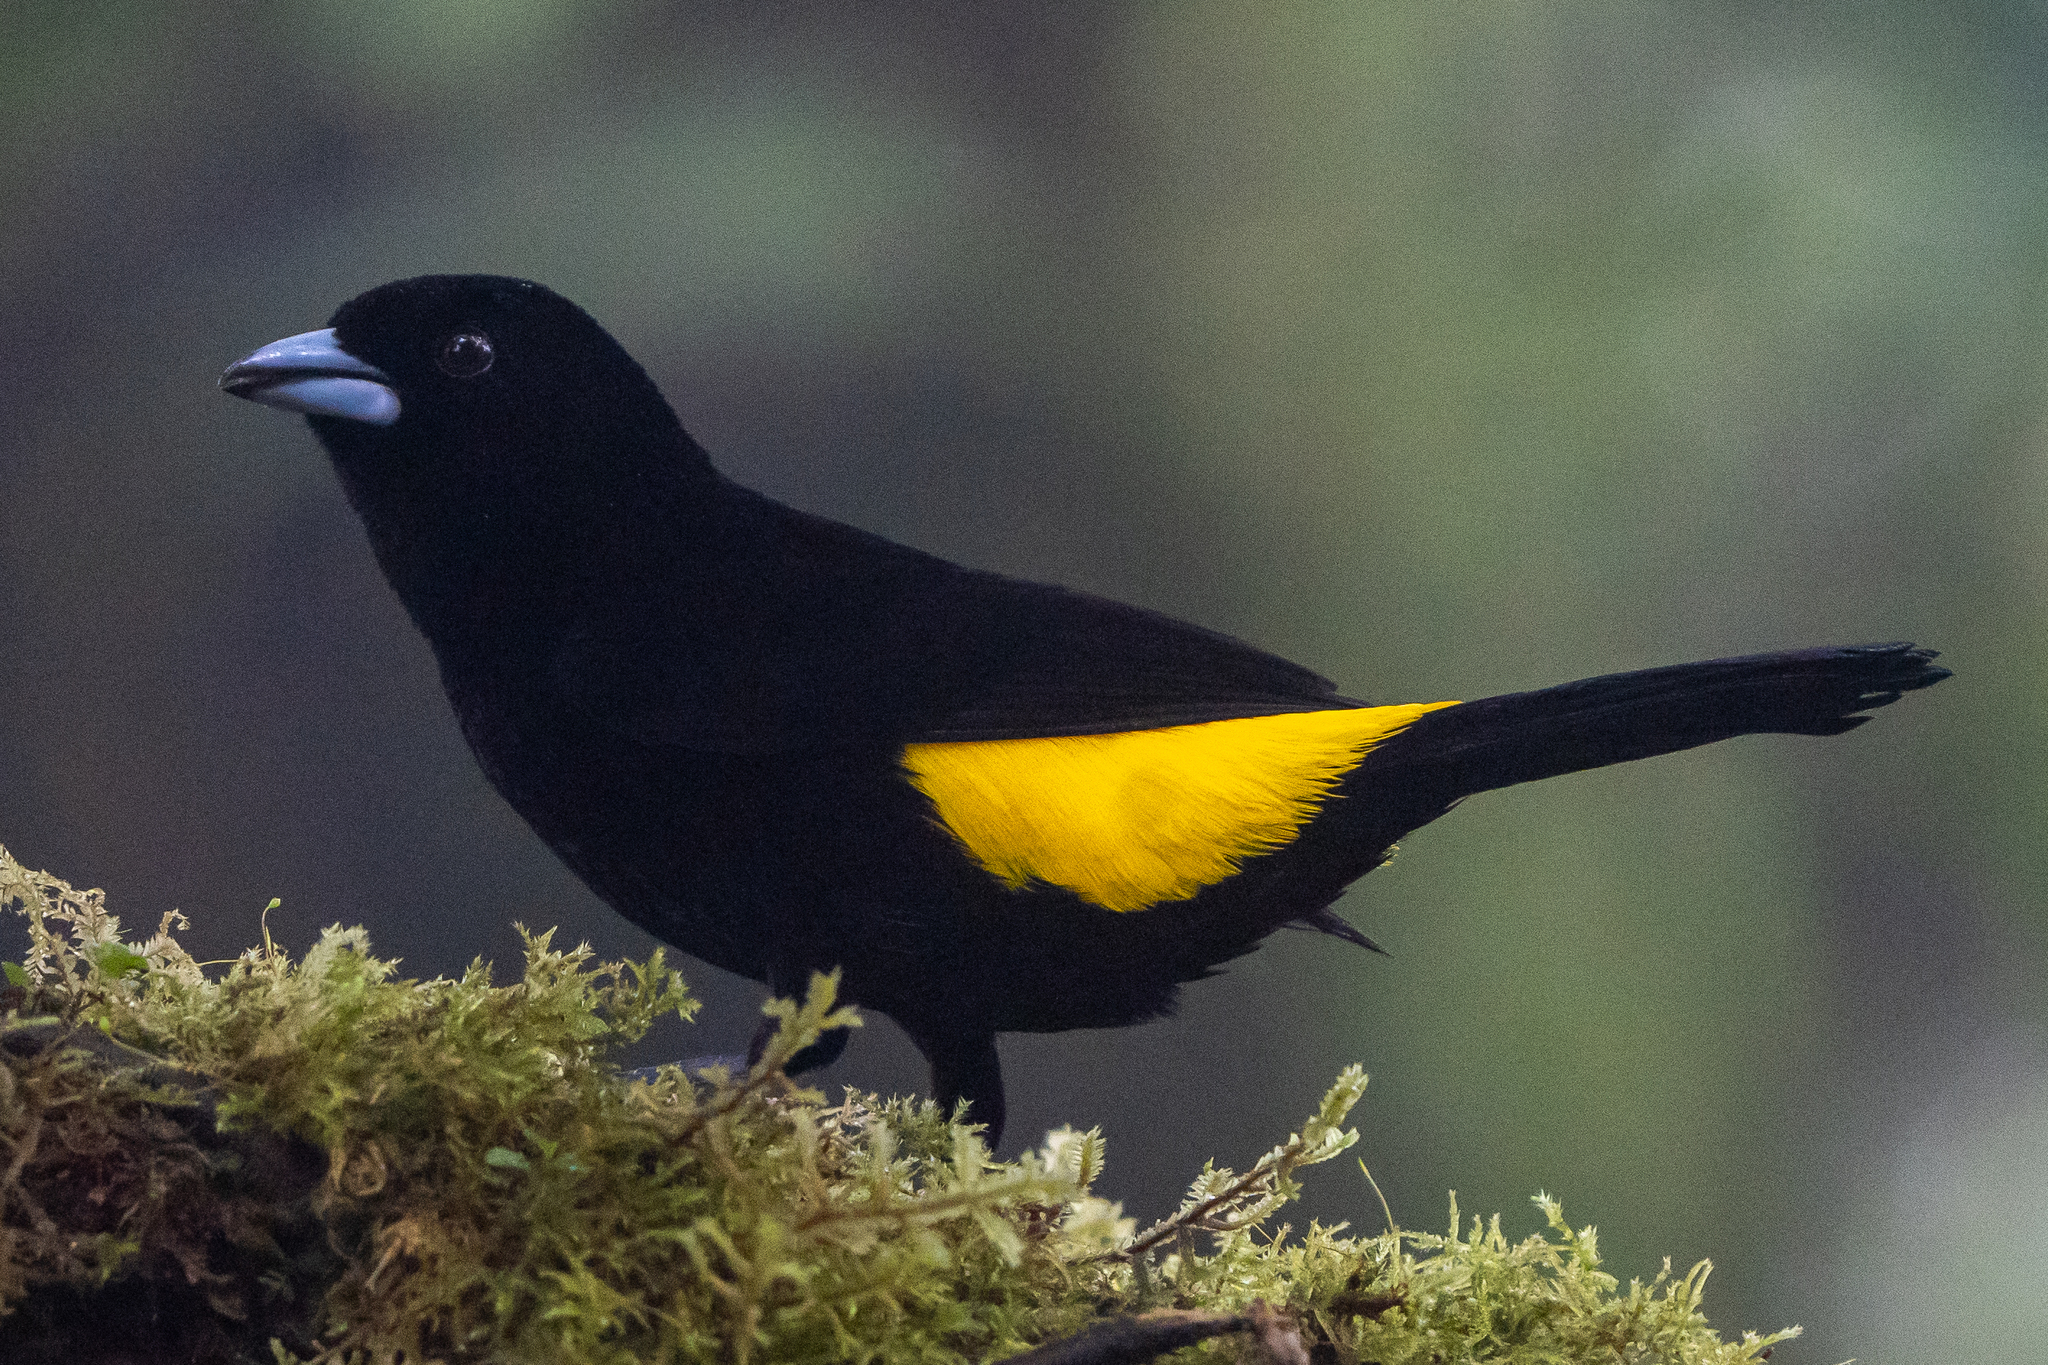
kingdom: Animalia
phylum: Chordata
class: Aves
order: Passeriformes
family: Thraupidae
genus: Ramphocelus
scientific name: Ramphocelus icteronotus
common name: Lemon-rumped tanager
